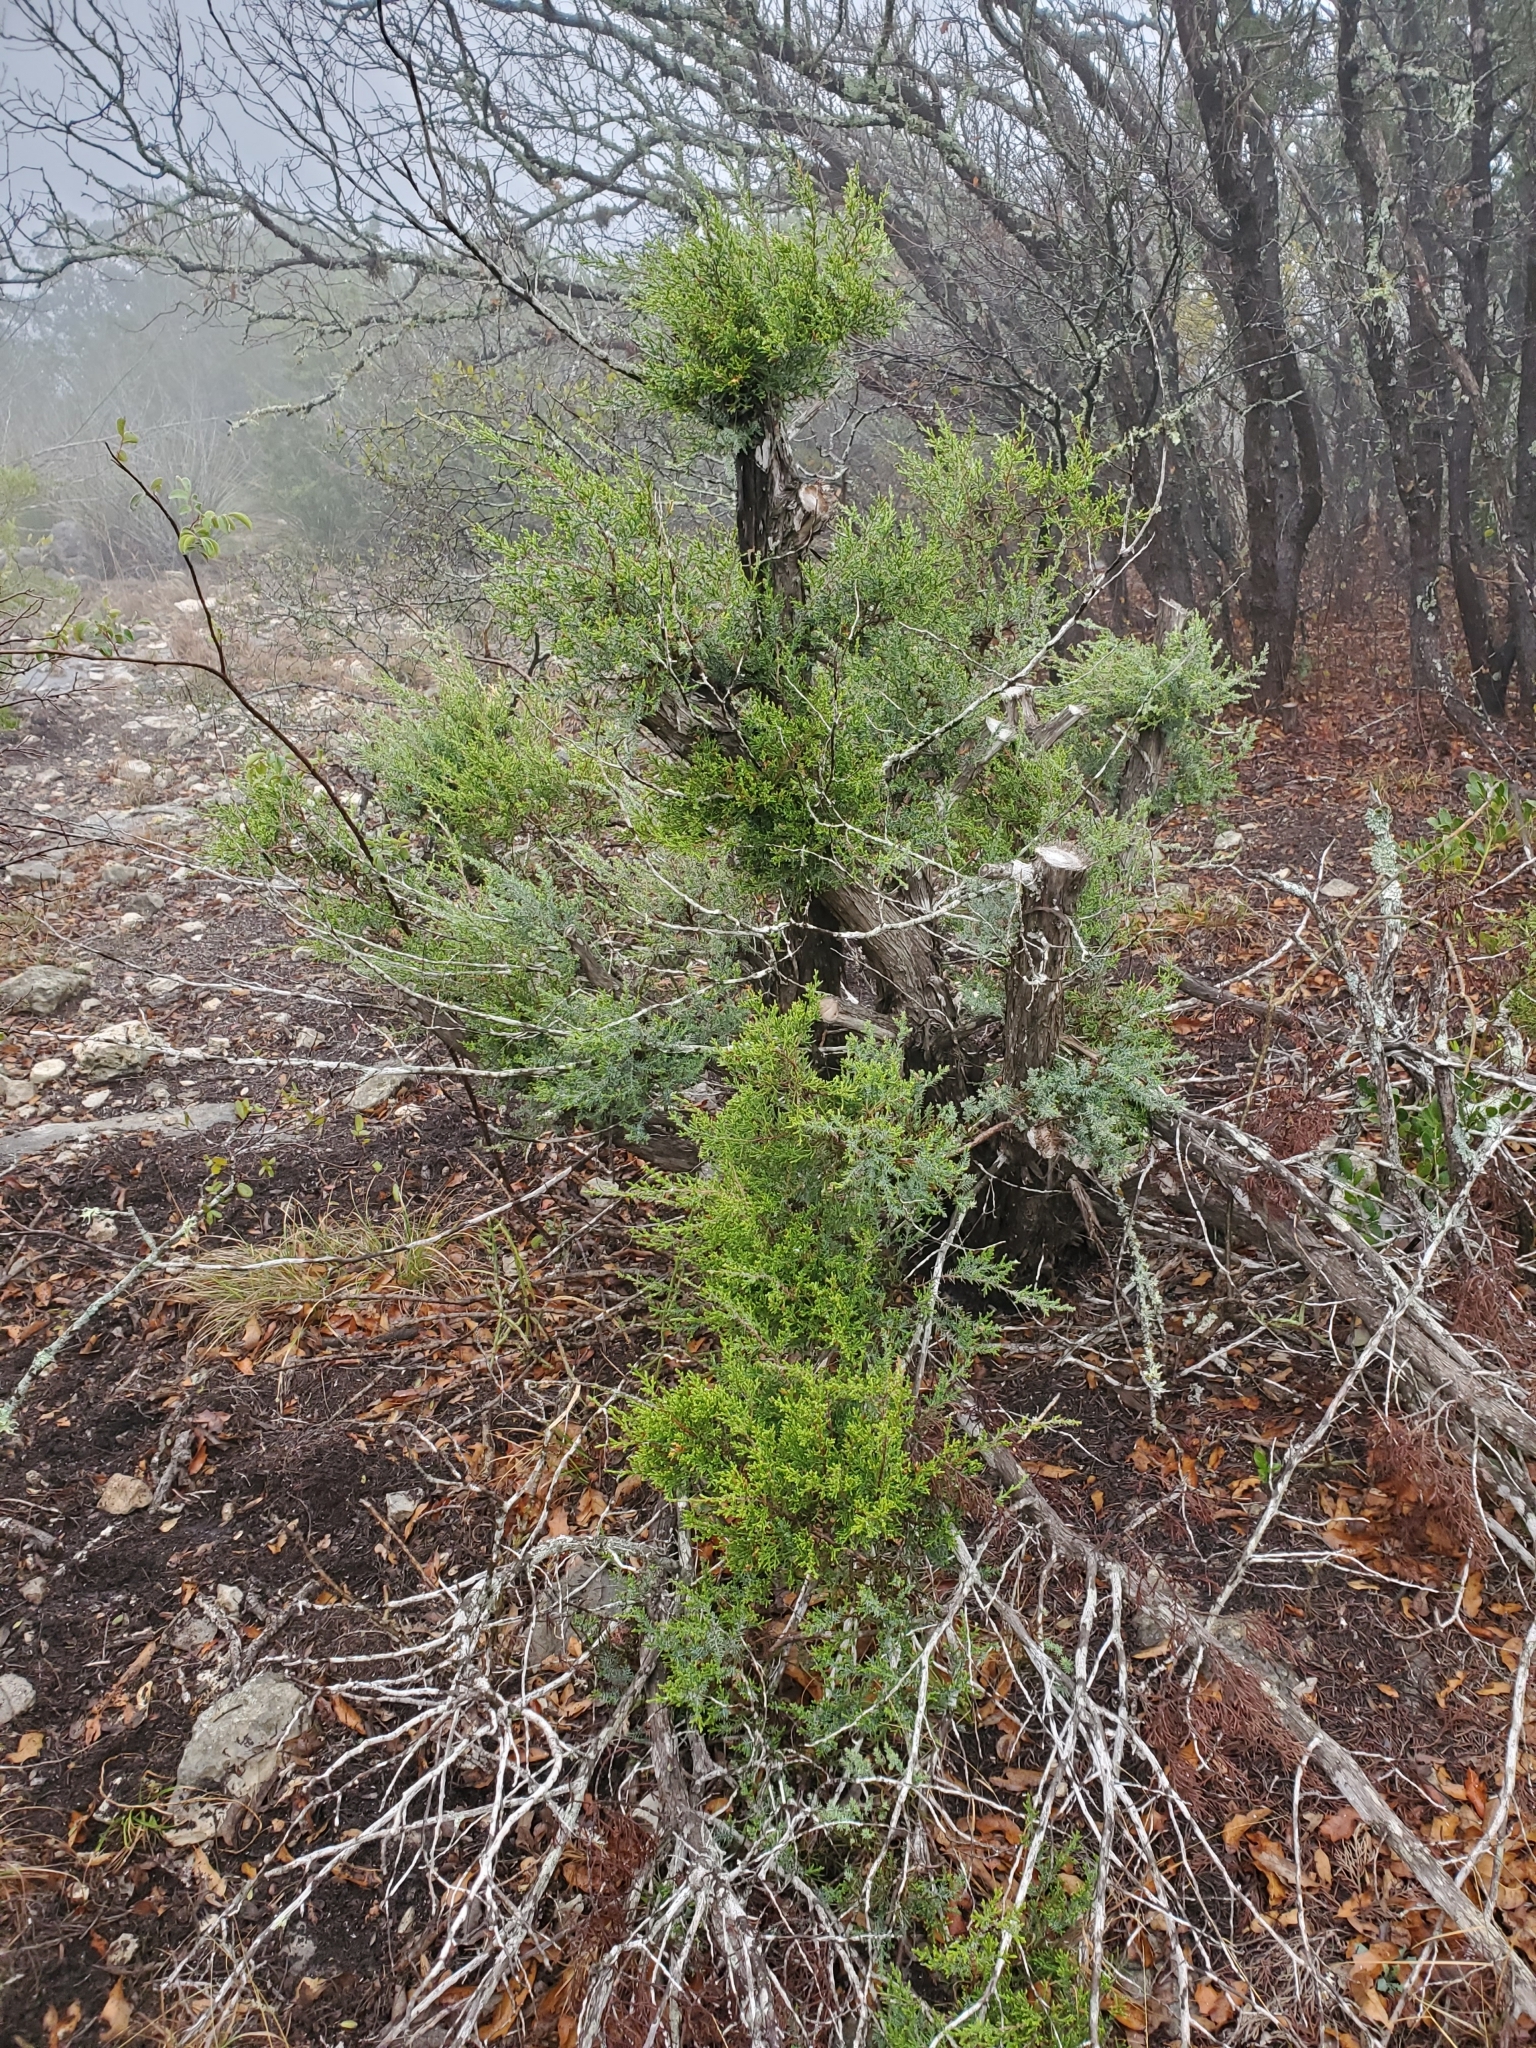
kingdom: Plantae
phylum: Tracheophyta
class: Pinopsida
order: Pinales
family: Cupressaceae
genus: Juniperus
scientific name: Juniperus pinchotii
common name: Pinchot juniper
